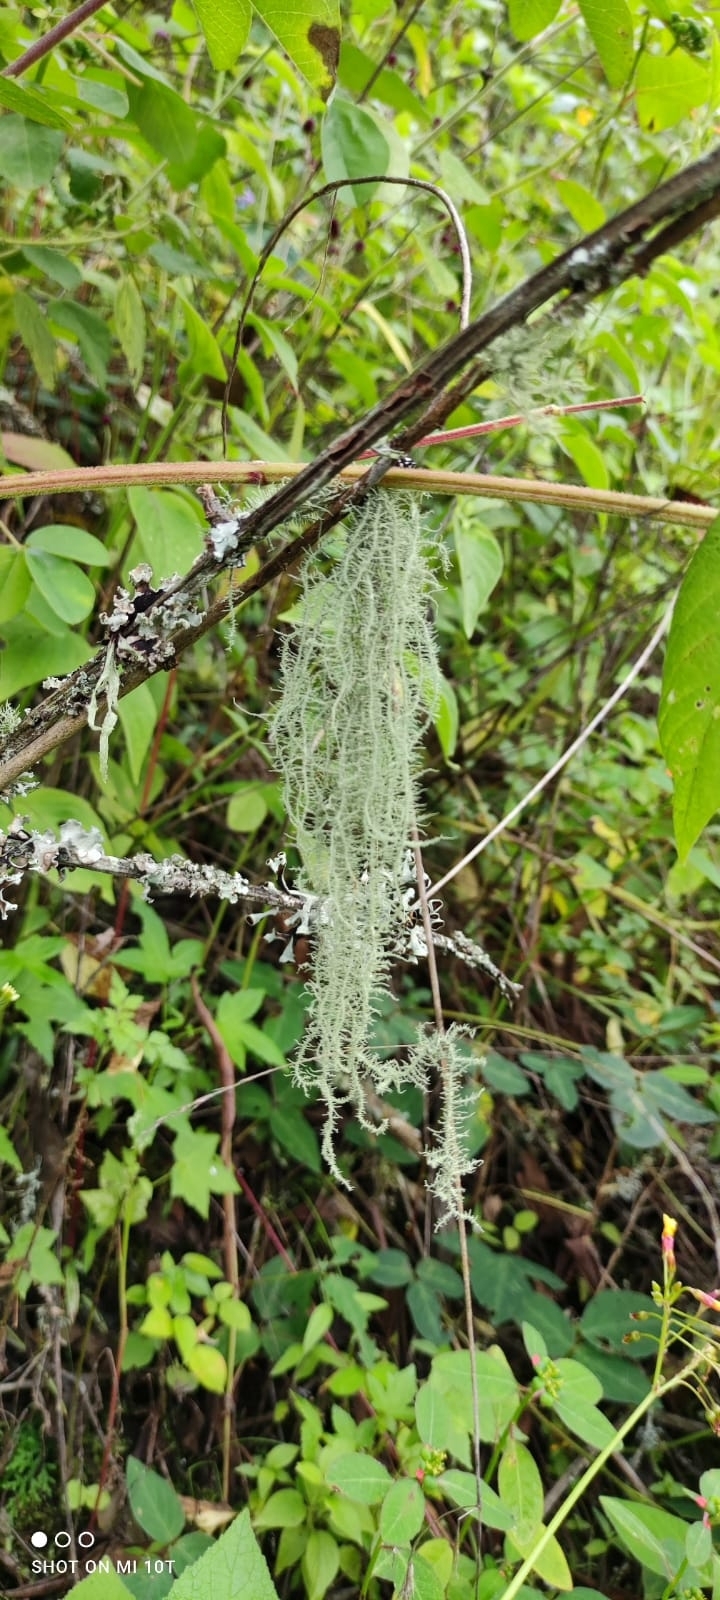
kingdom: Fungi
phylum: Ascomycota
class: Lecanoromycetes
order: Lecanorales
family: Parmeliaceae
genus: Usnea
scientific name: Usnea dasopoga
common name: Fishbone beard lichen
